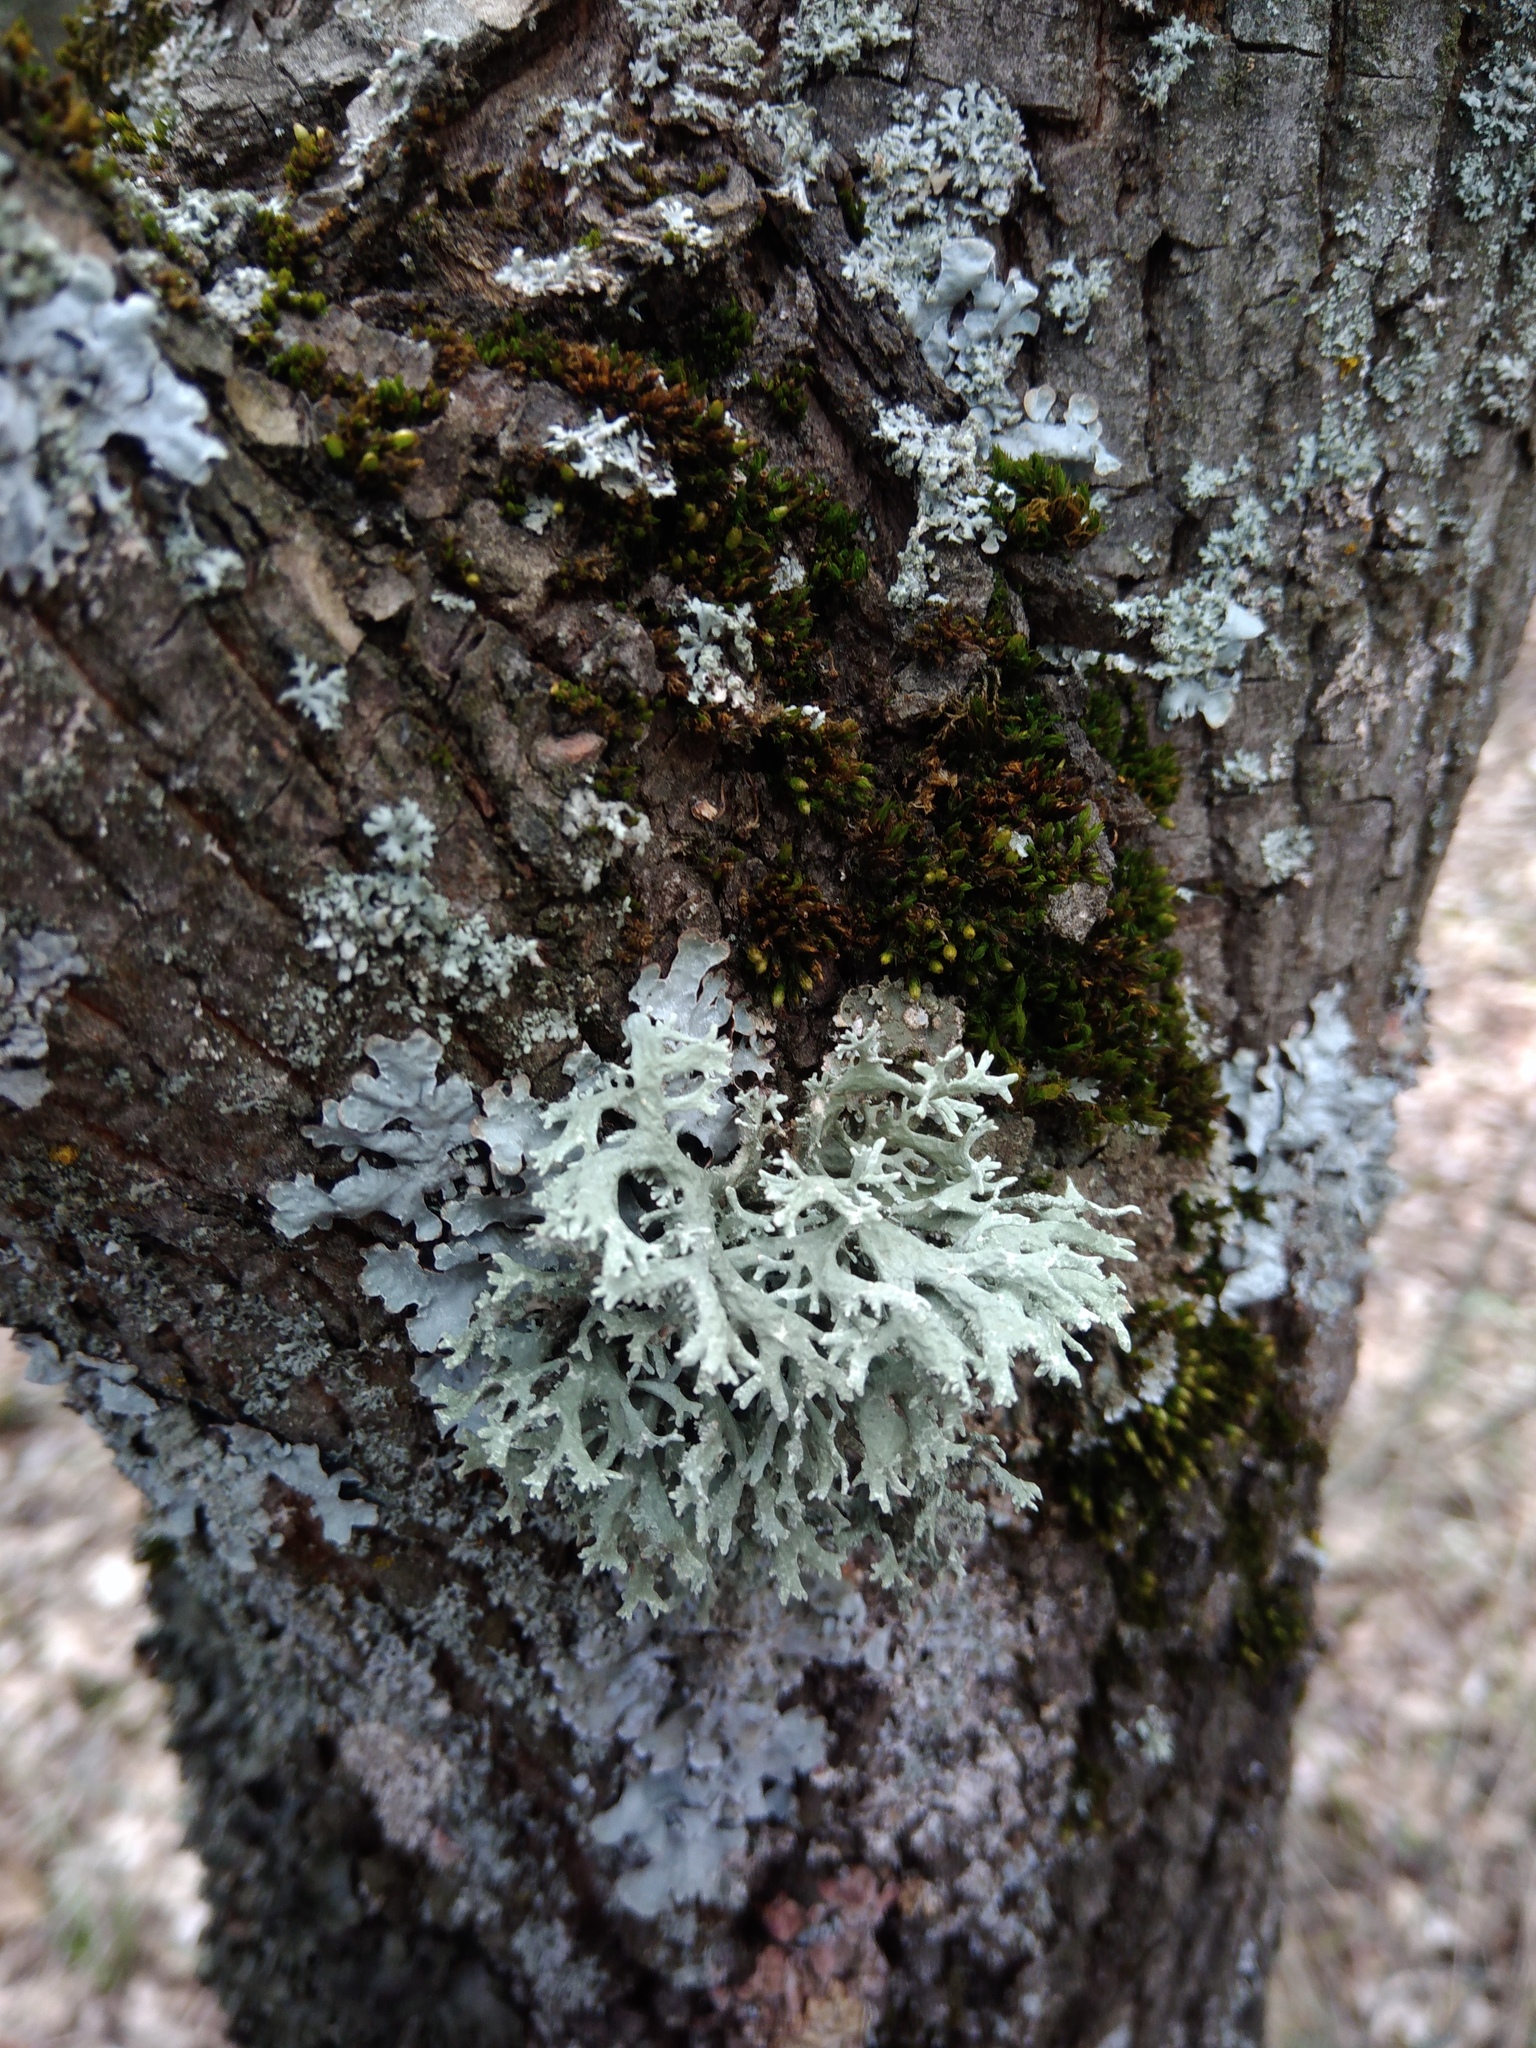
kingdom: Fungi
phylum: Ascomycota
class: Lecanoromycetes
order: Lecanorales
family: Parmeliaceae
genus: Evernia
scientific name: Evernia prunastri
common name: Oak moss
